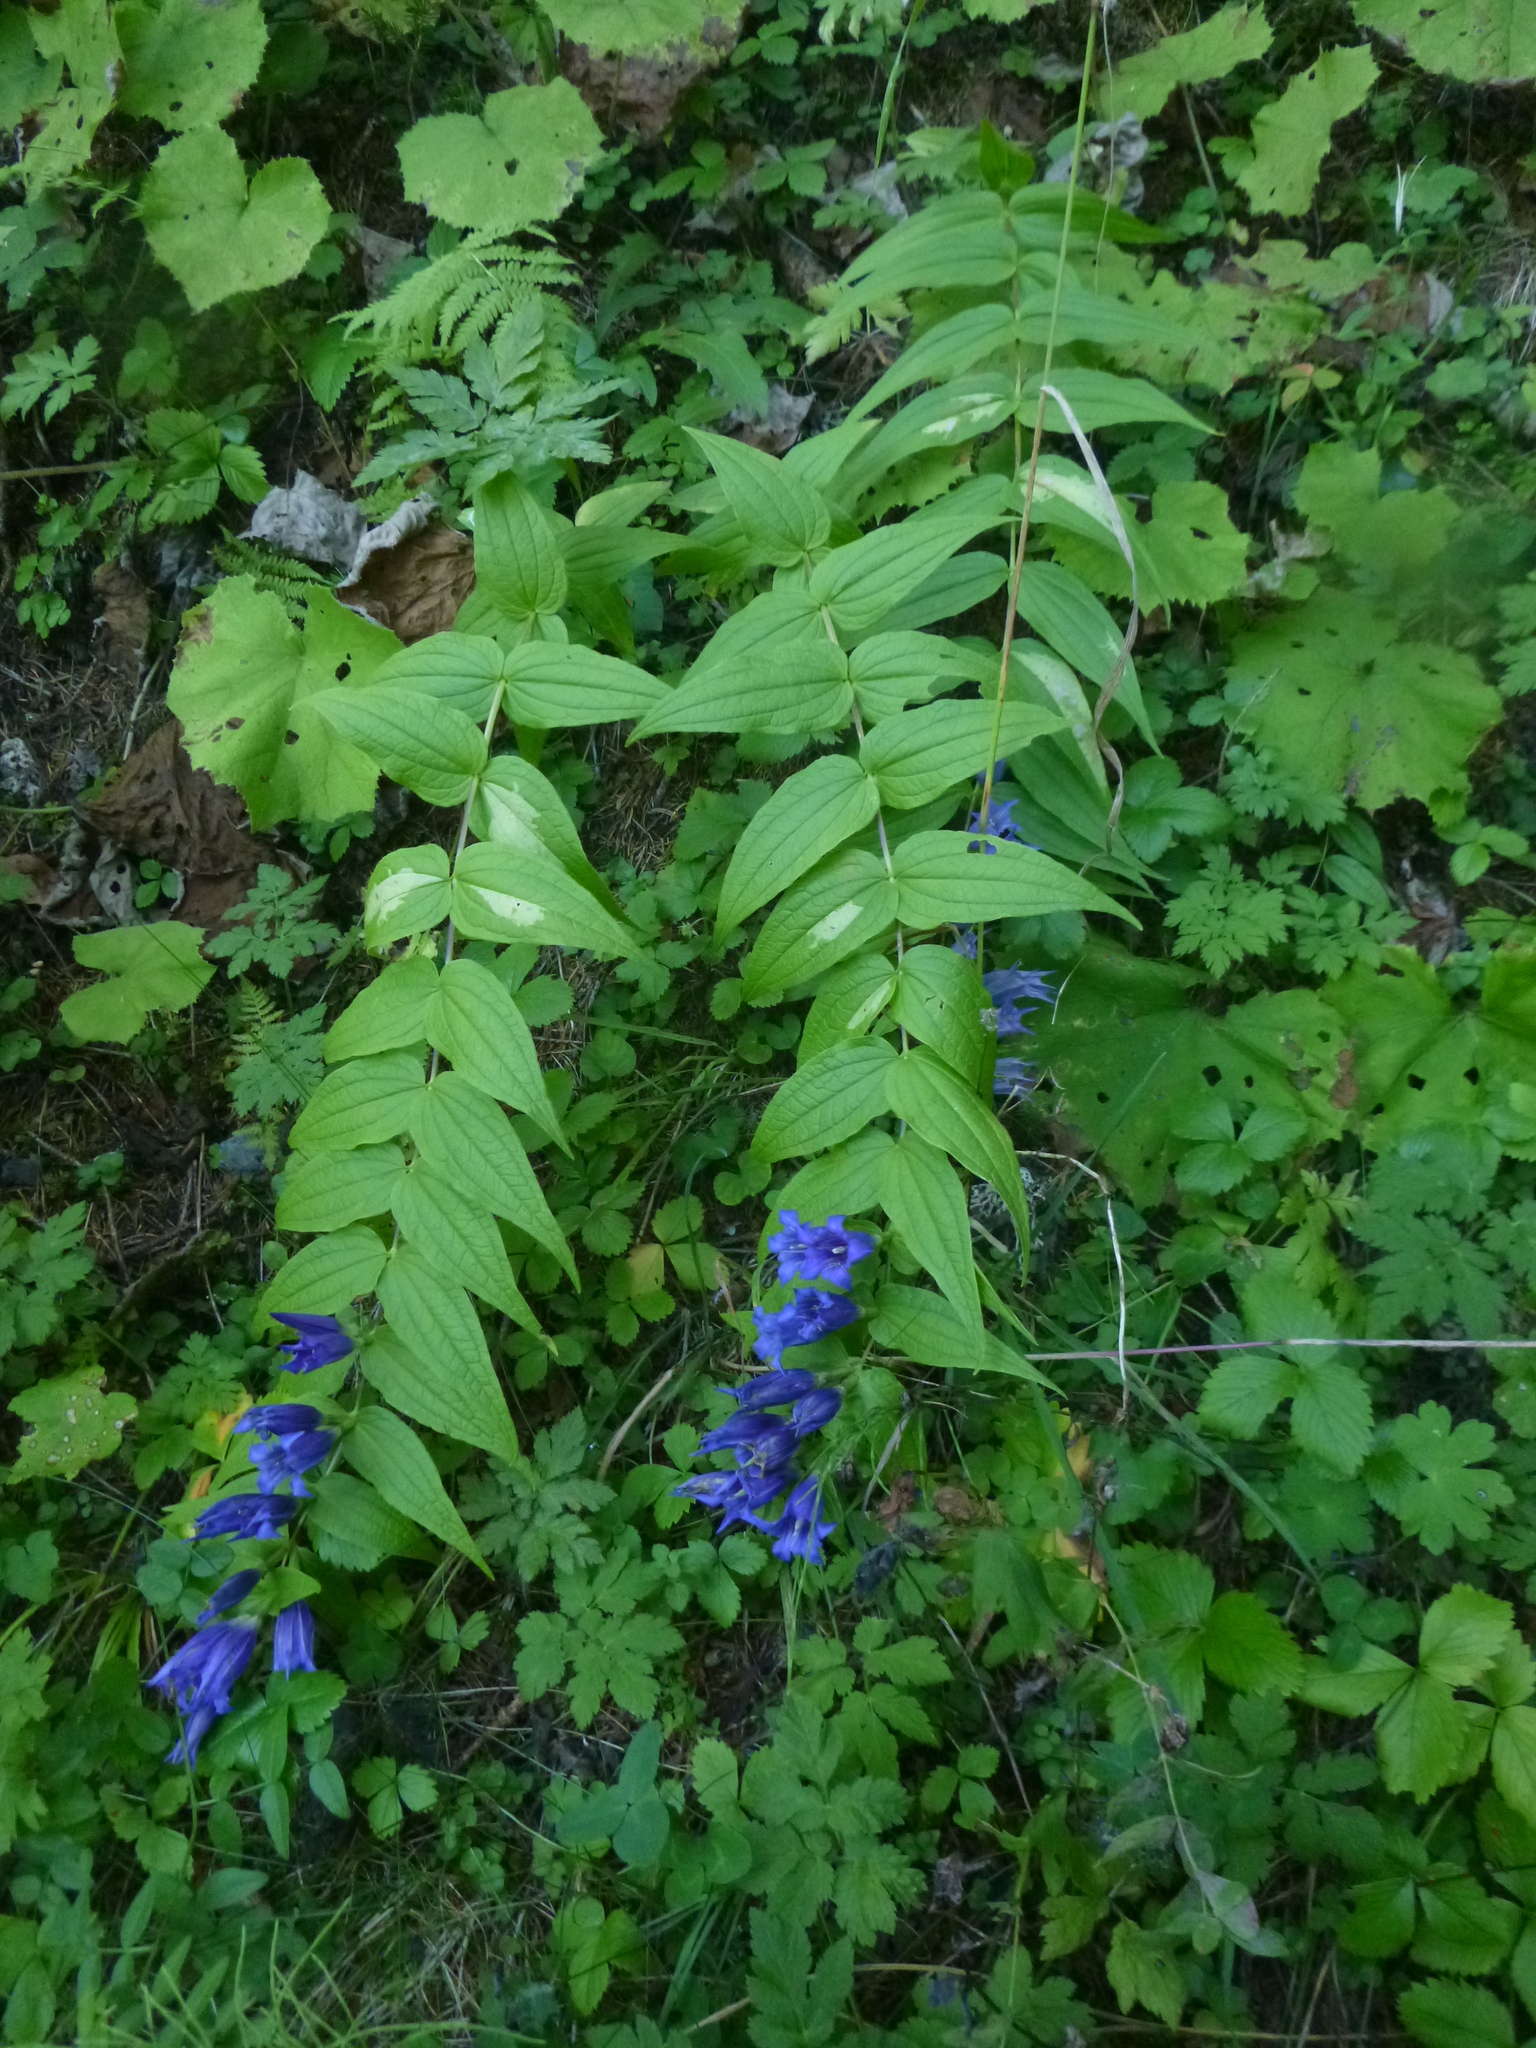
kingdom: Plantae
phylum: Tracheophyta
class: Magnoliopsida
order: Gentianales
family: Gentianaceae
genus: Gentiana
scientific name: Gentiana asclepiadea
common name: Willow gentian
